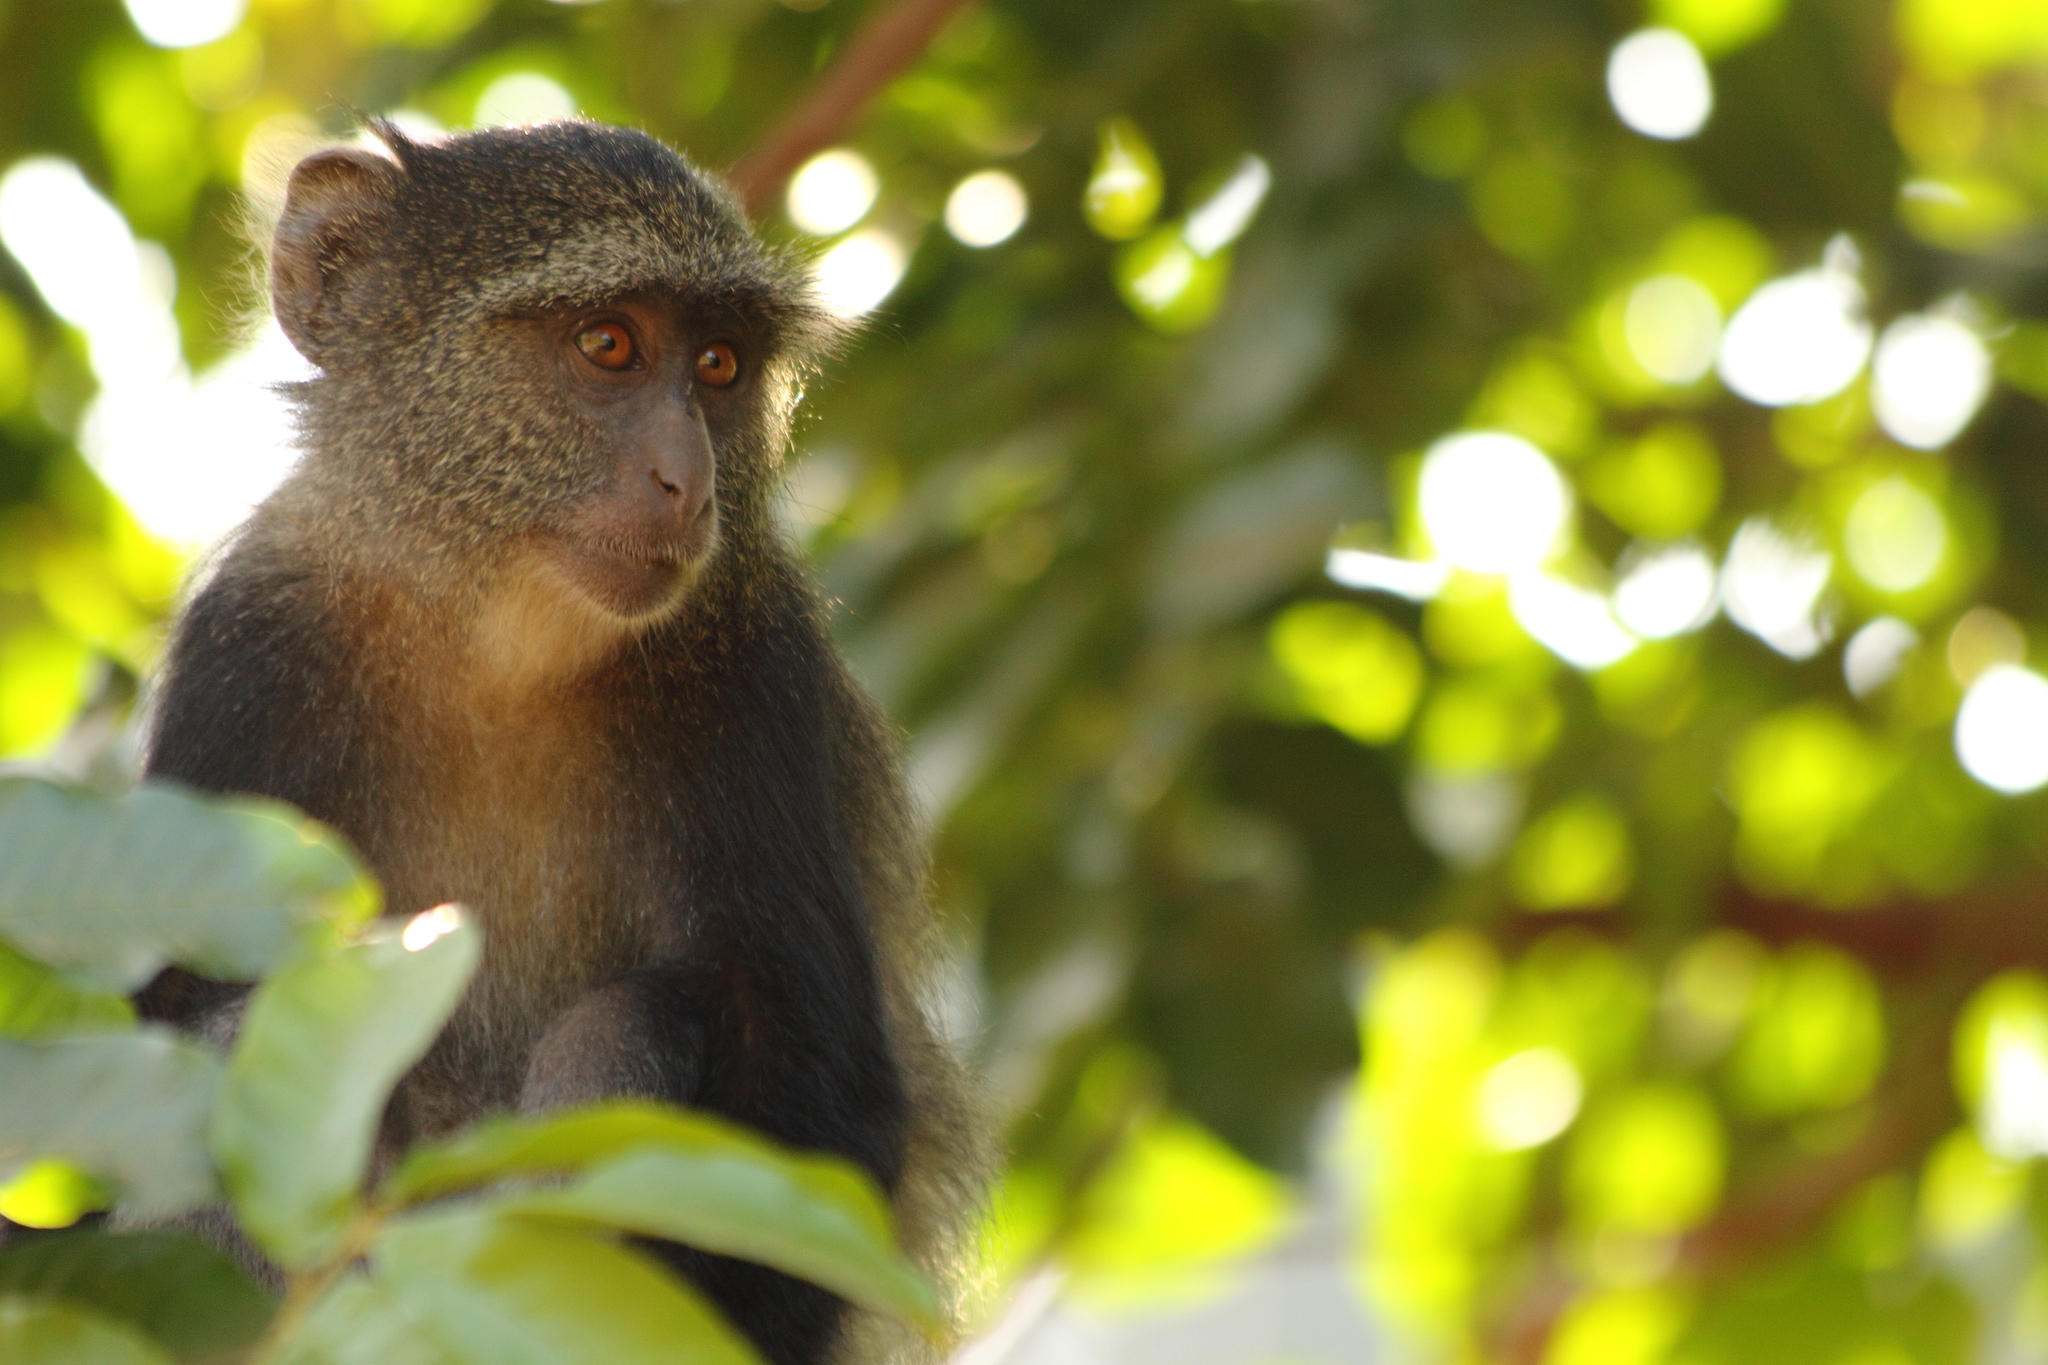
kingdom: Animalia
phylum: Chordata
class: Mammalia
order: Primates
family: Cercopithecidae
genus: Cercopithecus
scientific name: Cercopithecus mitis
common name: Blue monkey
